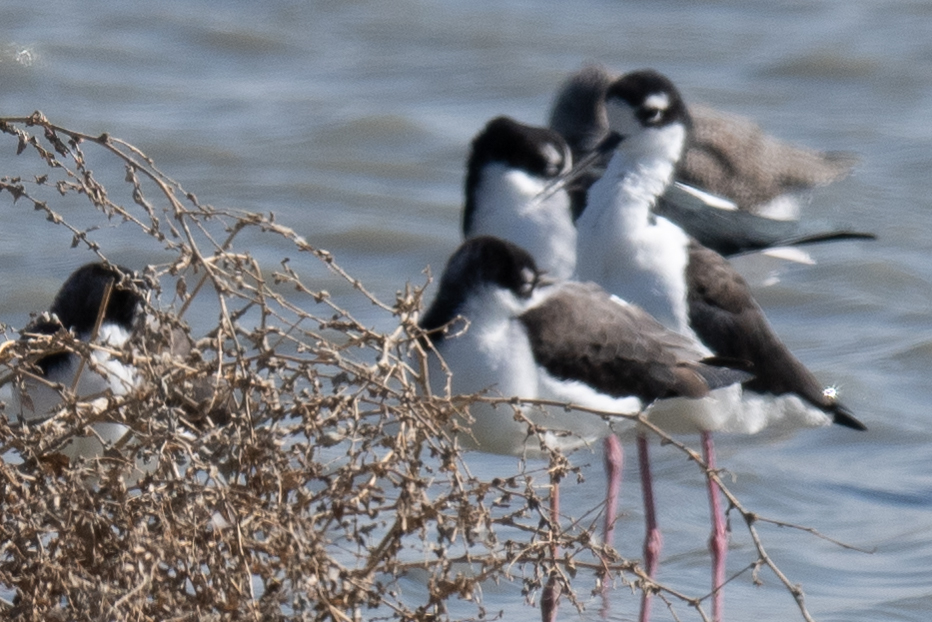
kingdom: Animalia
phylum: Chordata
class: Aves
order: Charadriiformes
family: Recurvirostridae
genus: Himantopus
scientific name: Himantopus mexicanus
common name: Black-necked stilt
